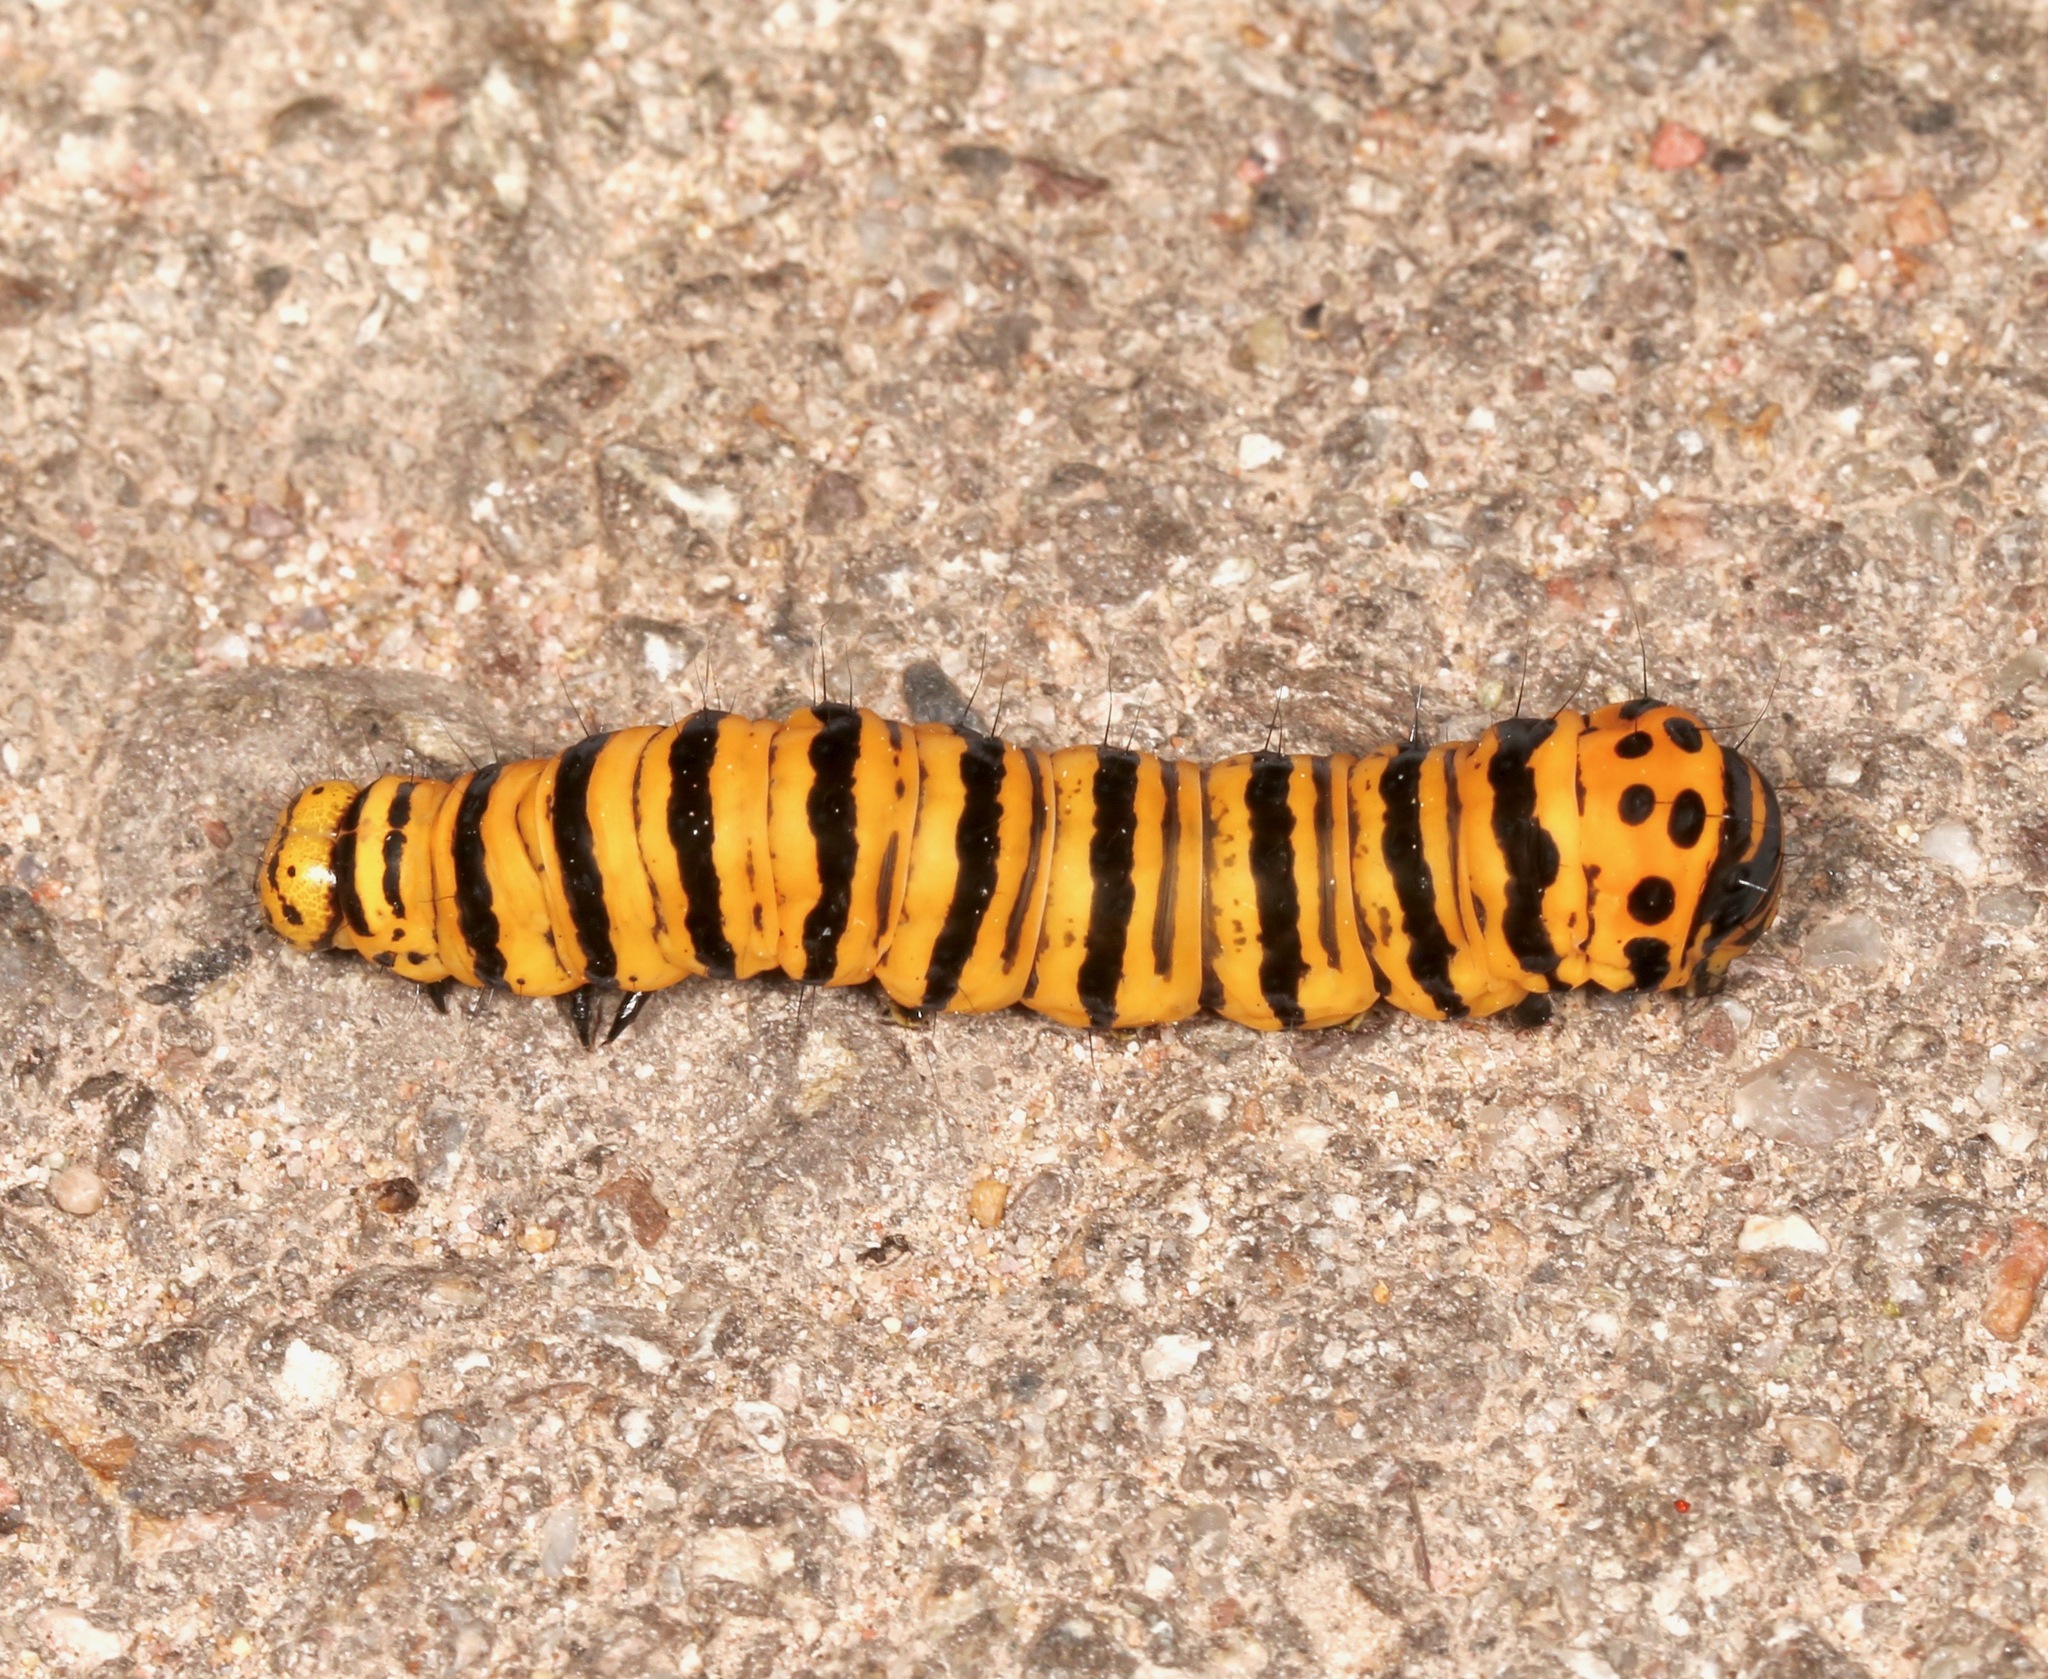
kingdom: Animalia
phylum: Arthropoda
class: Insecta
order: Lepidoptera
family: Noctuidae
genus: Gerrodes
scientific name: Gerrodes minatea
